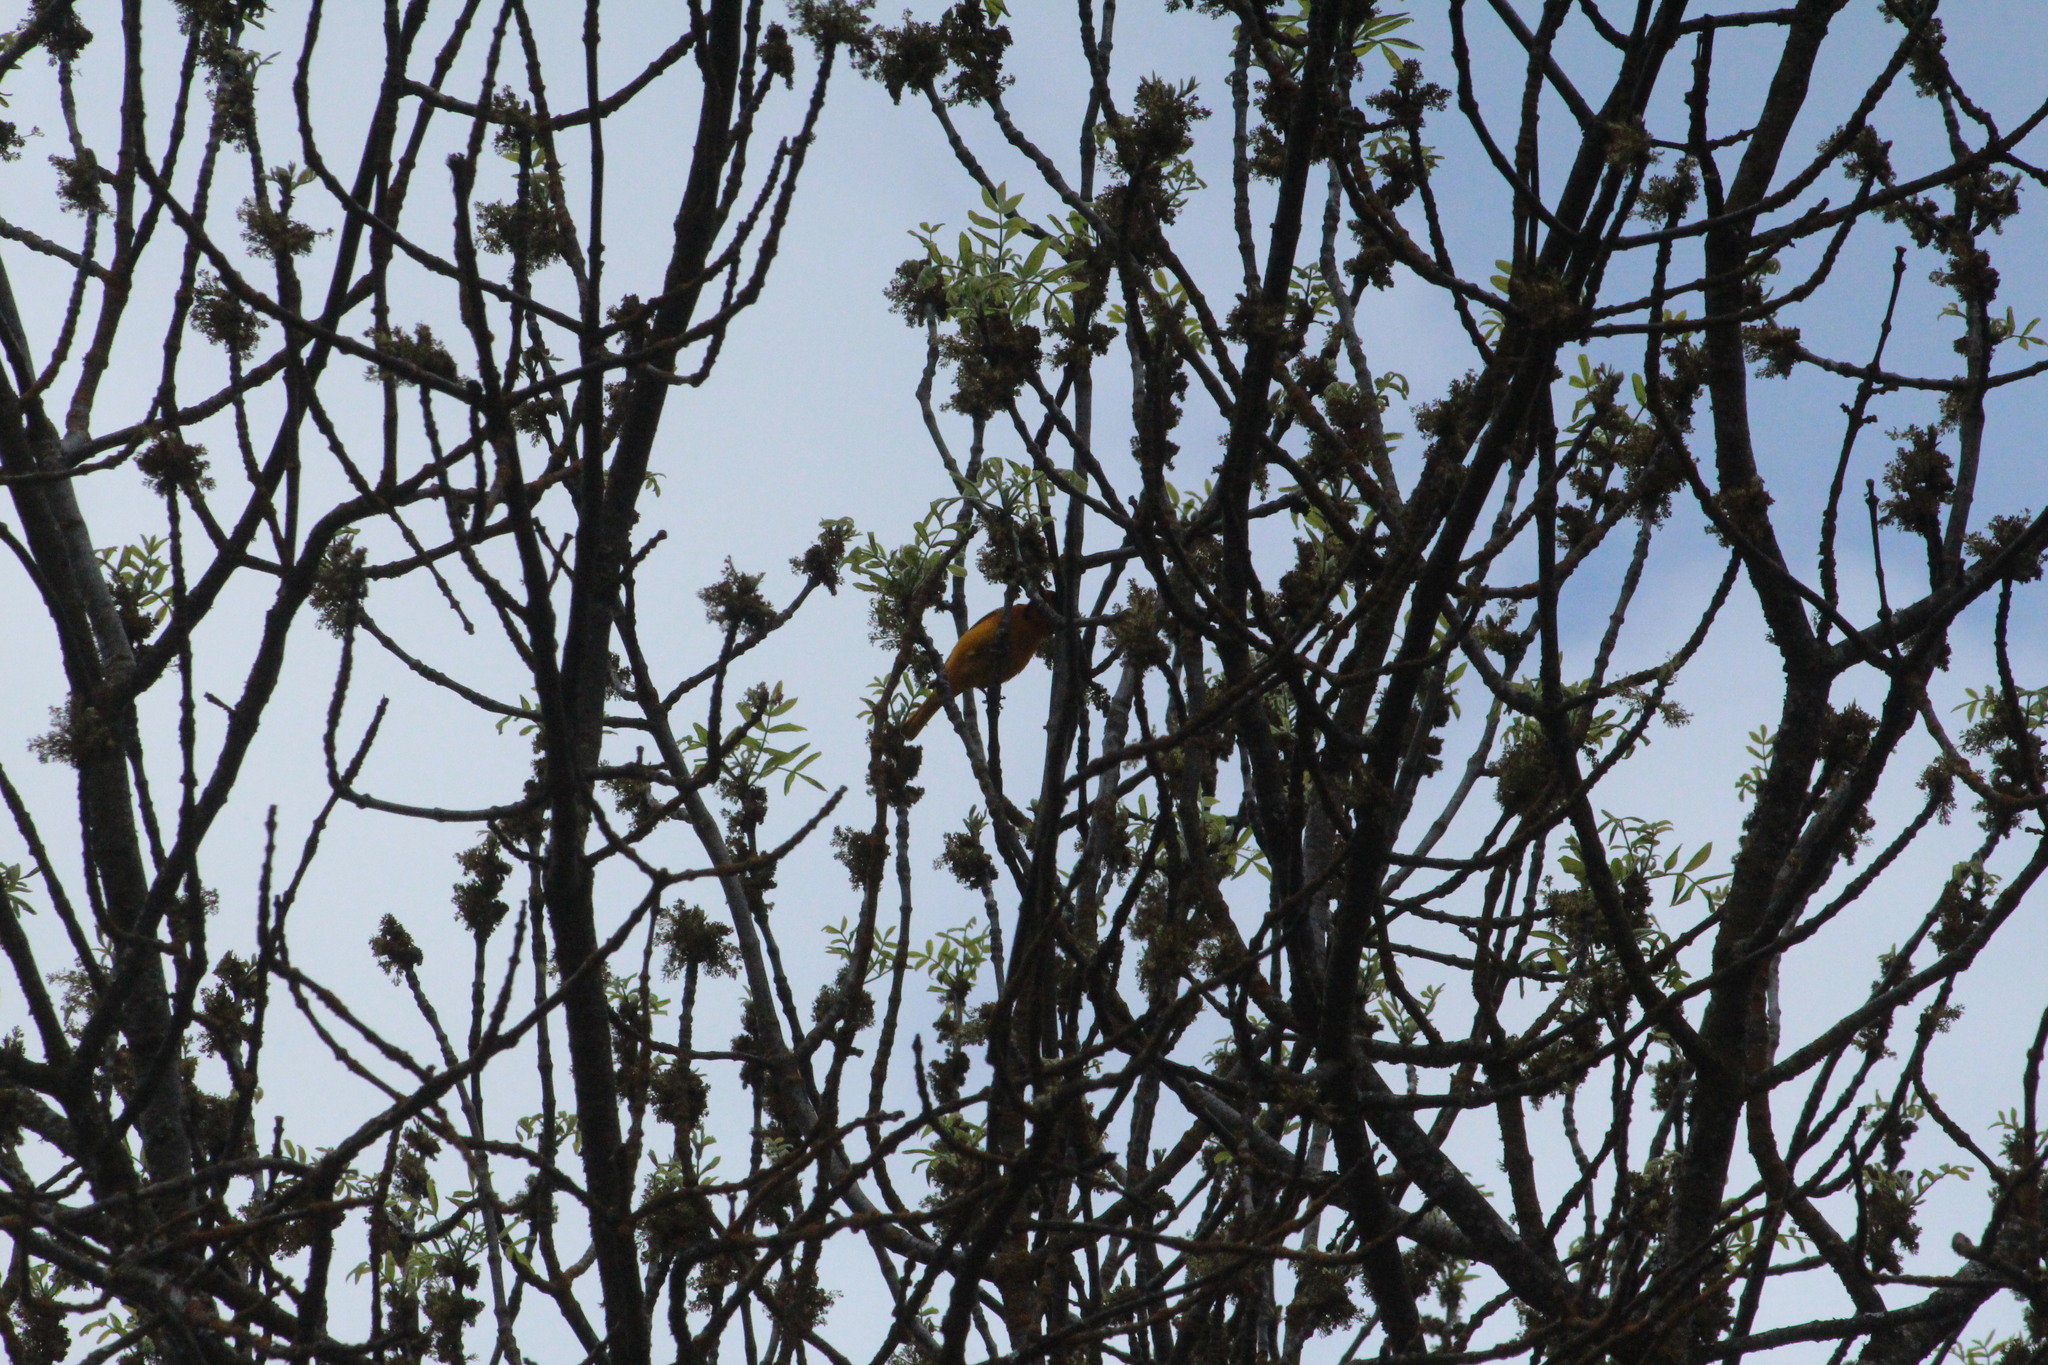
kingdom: Animalia
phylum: Chordata
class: Aves
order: Passeriformes
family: Icteridae
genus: Icterus
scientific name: Icterus bullockii
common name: Bullock's oriole
